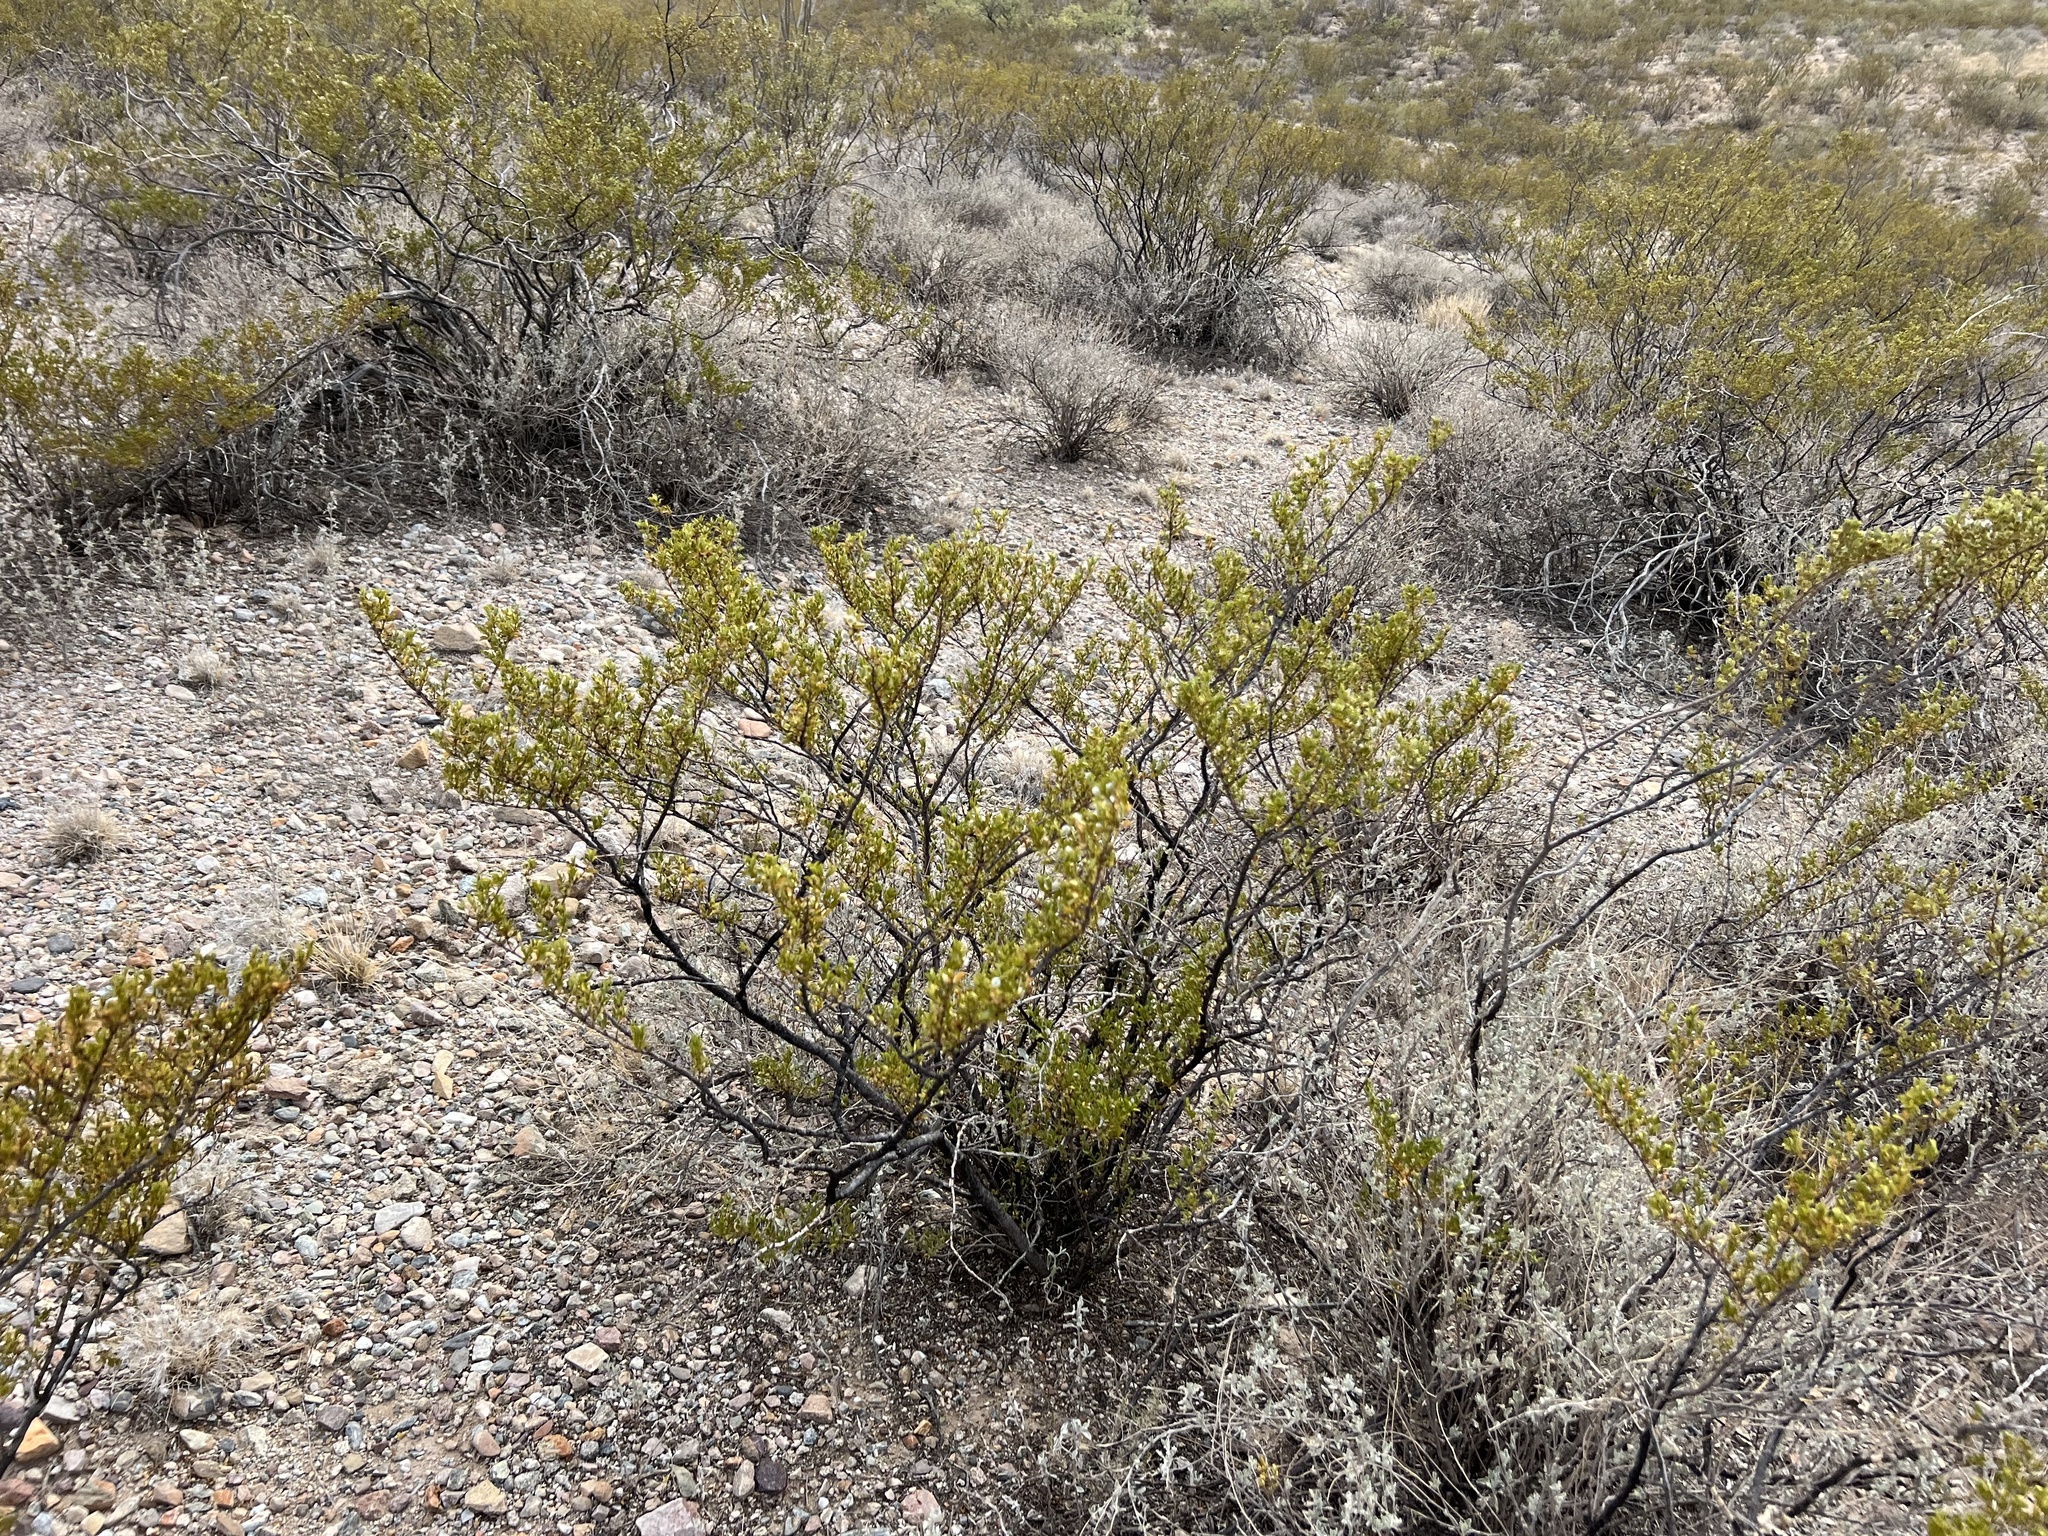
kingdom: Plantae
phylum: Tracheophyta
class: Magnoliopsida
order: Zygophyllales
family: Zygophyllaceae
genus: Larrea
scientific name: Larrea tridentata
